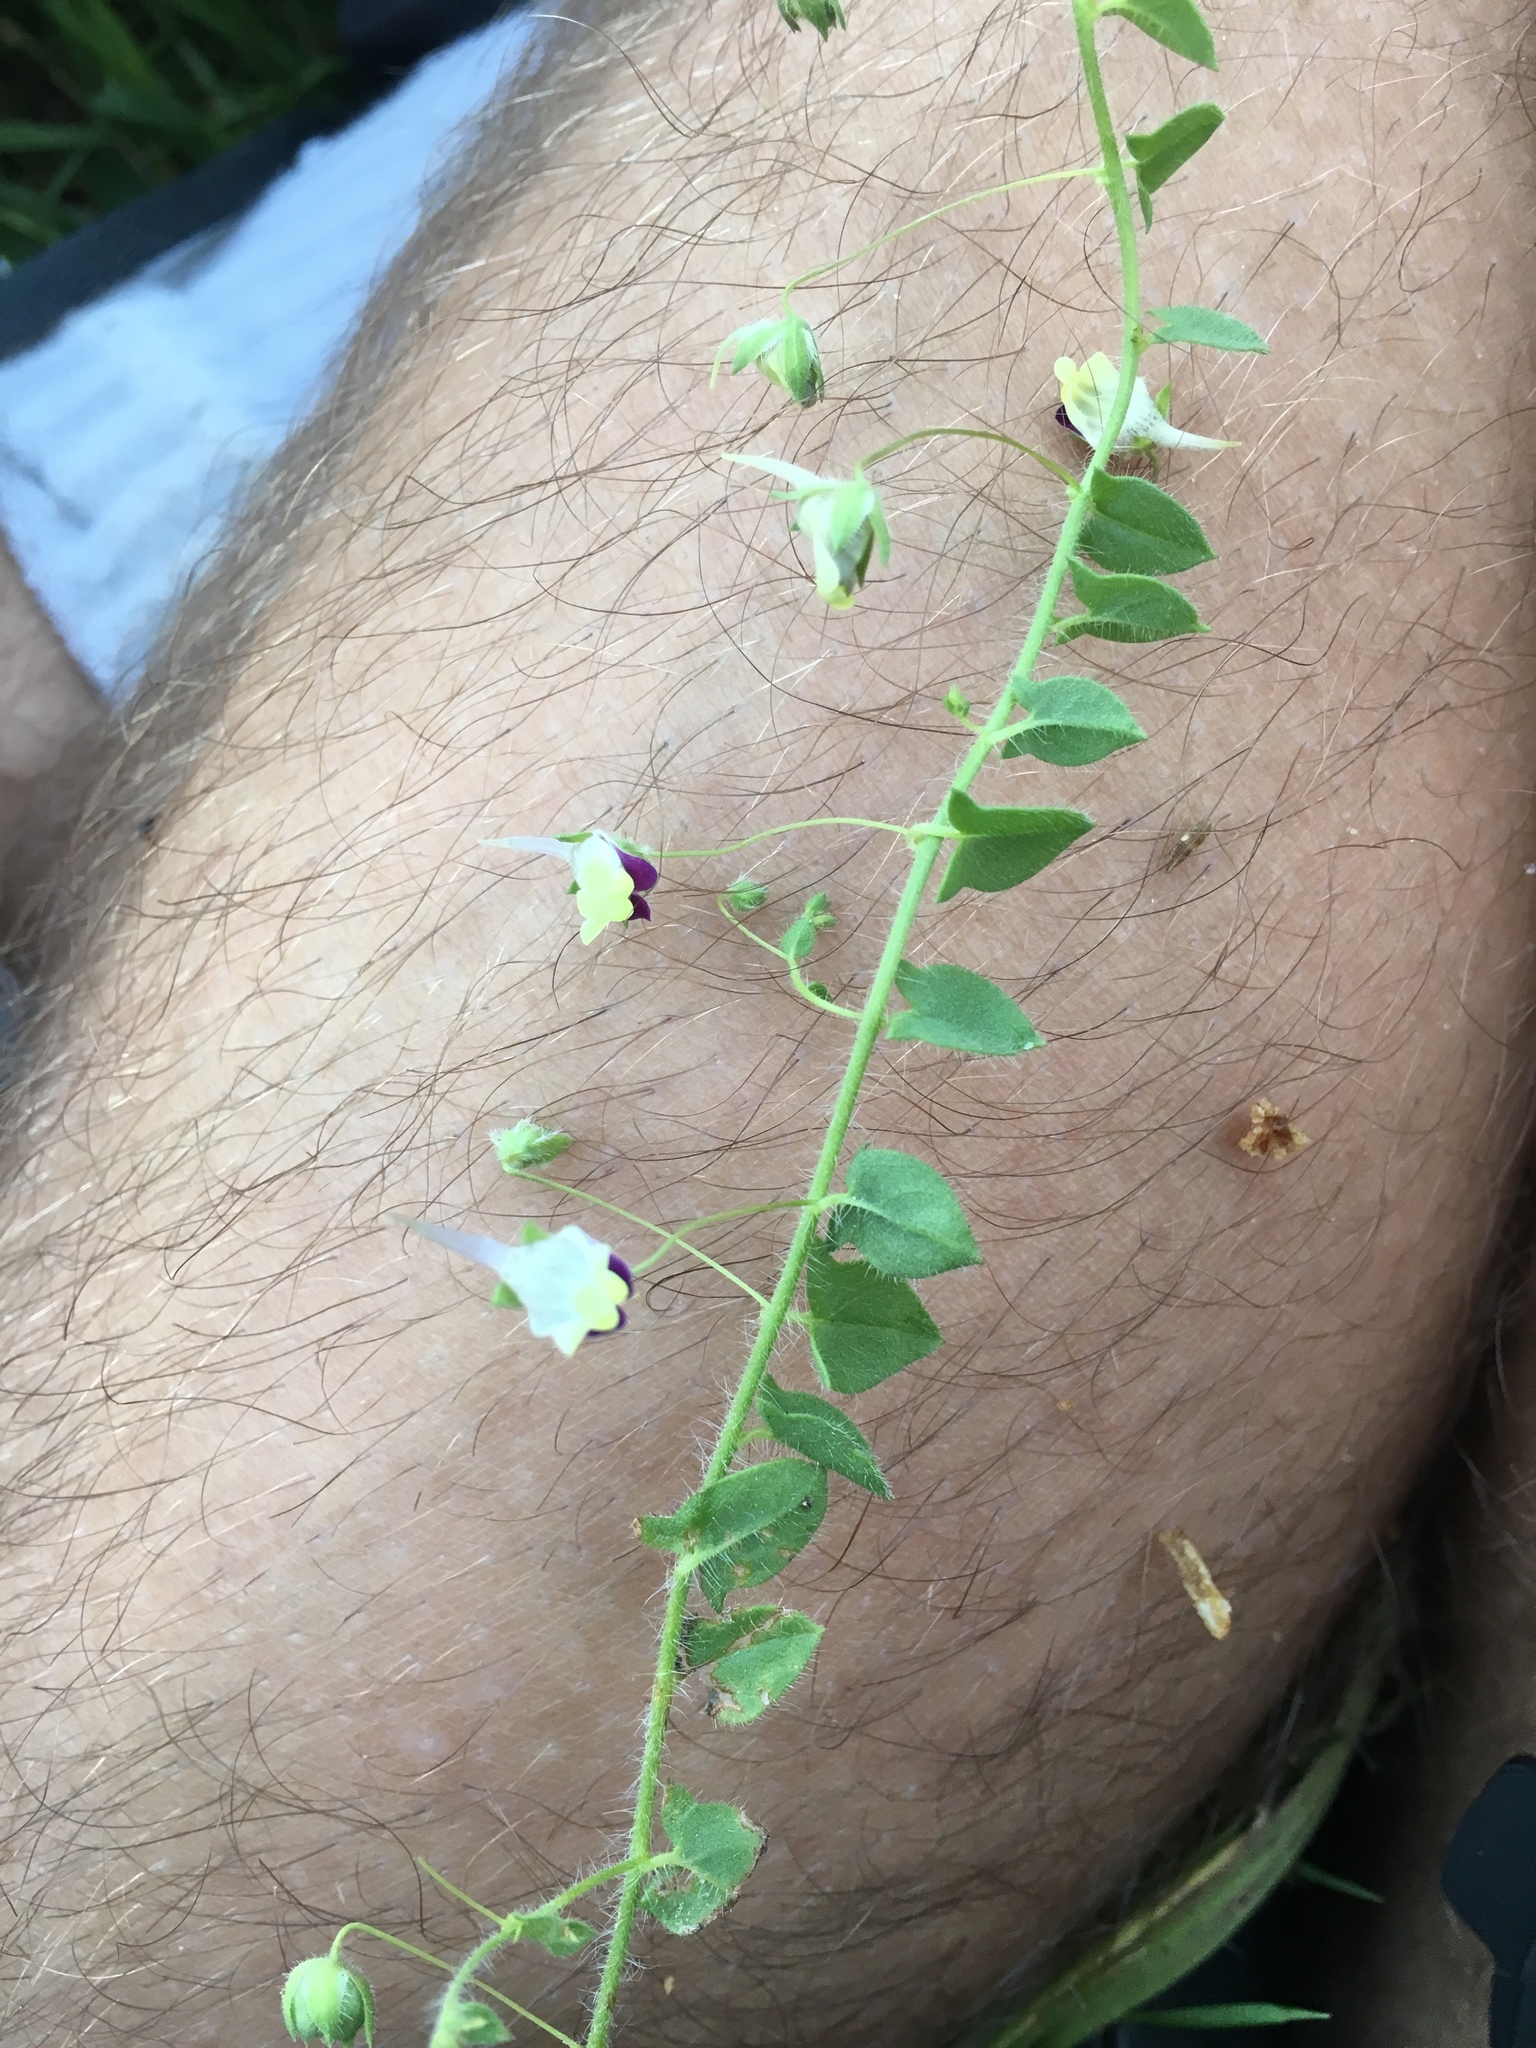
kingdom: Plantae
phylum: Tracheophyta
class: Magnoliopsida
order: Lamiales
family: Plantaginaceae
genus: Kickxia
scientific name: Kickxia elatine
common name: Sharp-leaved fluellen
